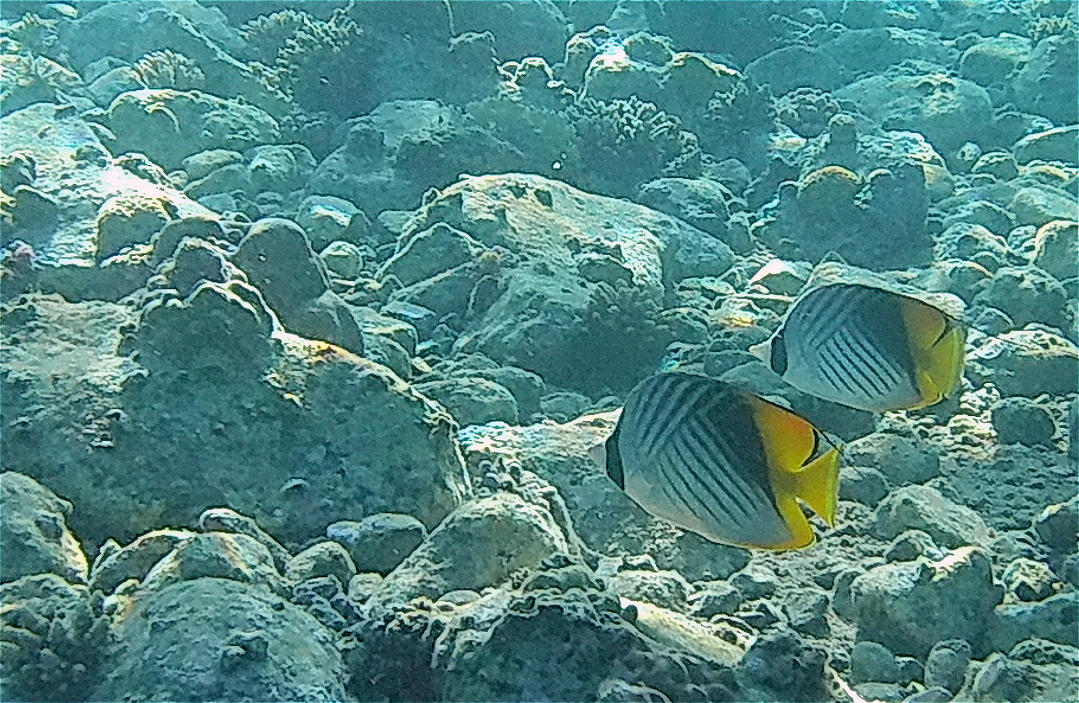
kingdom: Animalia
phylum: Chordata
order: Perciformes
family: Chaetodontidae
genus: Chaetodon
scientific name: Chaetodon auriga
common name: Threadfin butterflyfish
